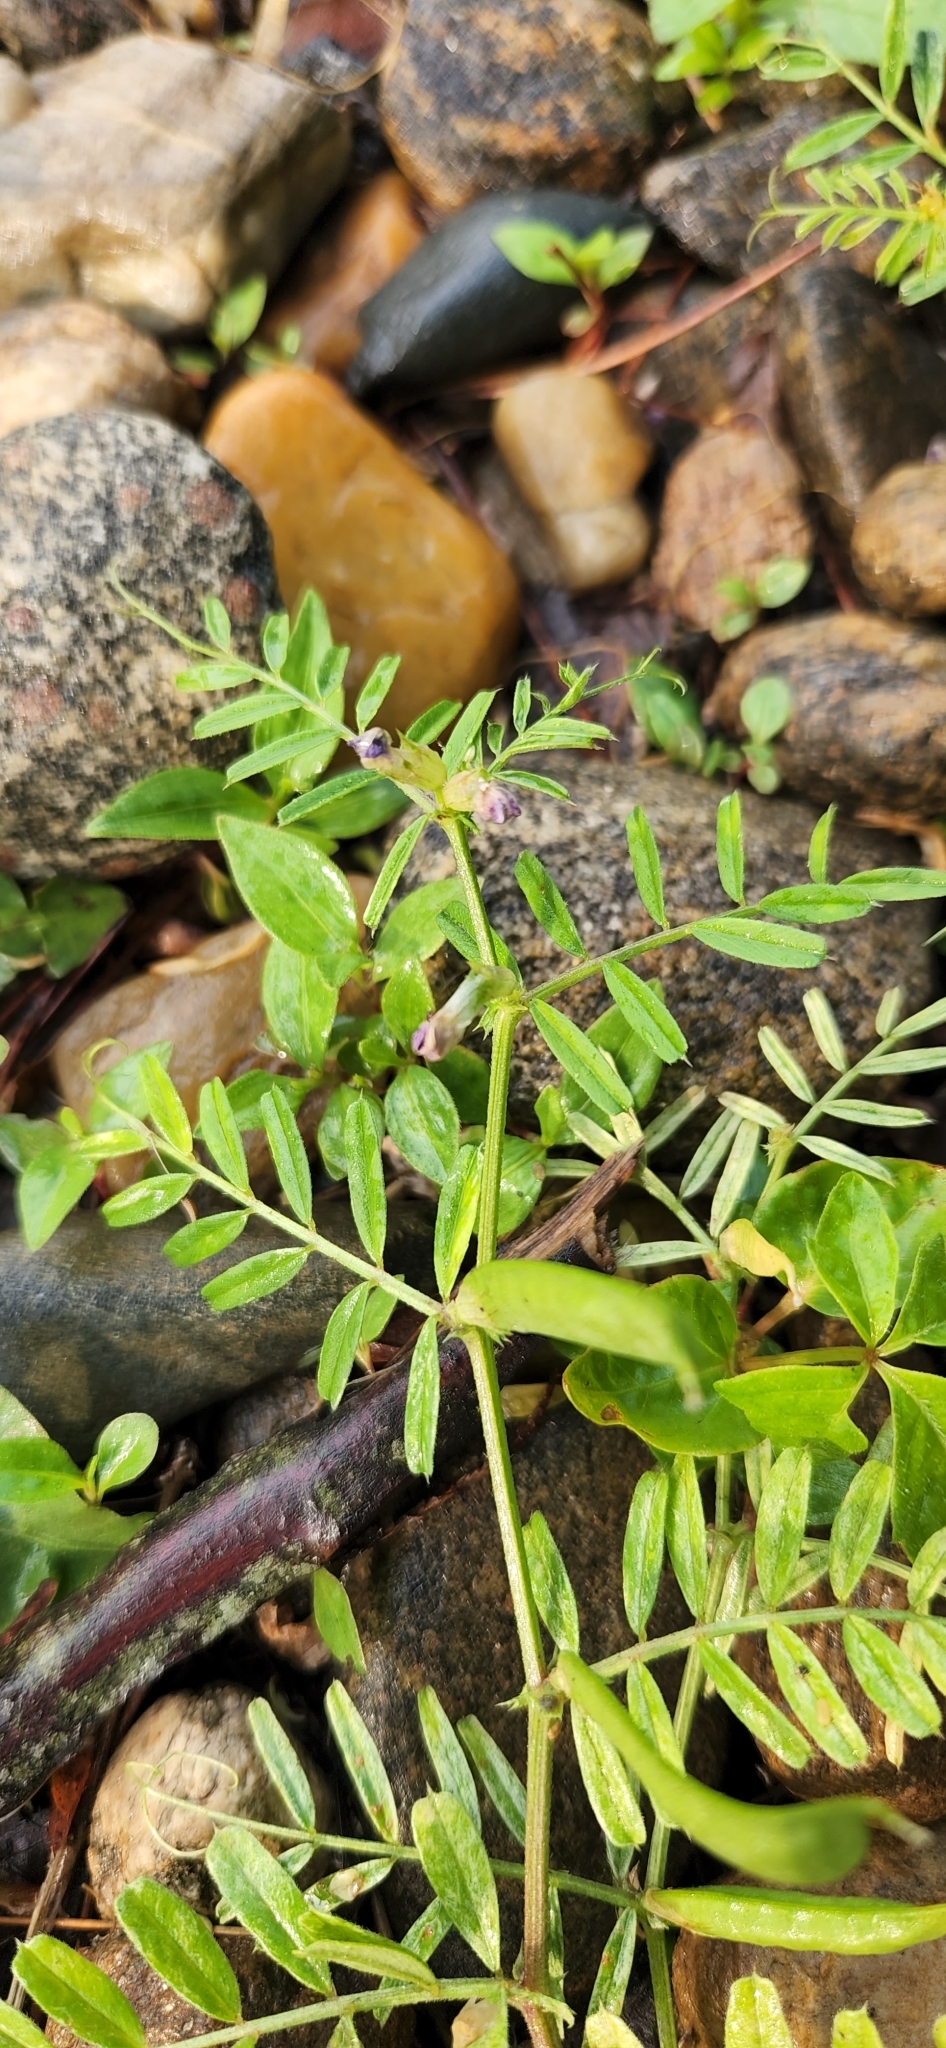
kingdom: Plantae
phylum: Tracheophyta
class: Magnoliopsida
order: Fabales
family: Fabaceae
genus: Vicia
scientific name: Vicia sativa
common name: Garden vetch
